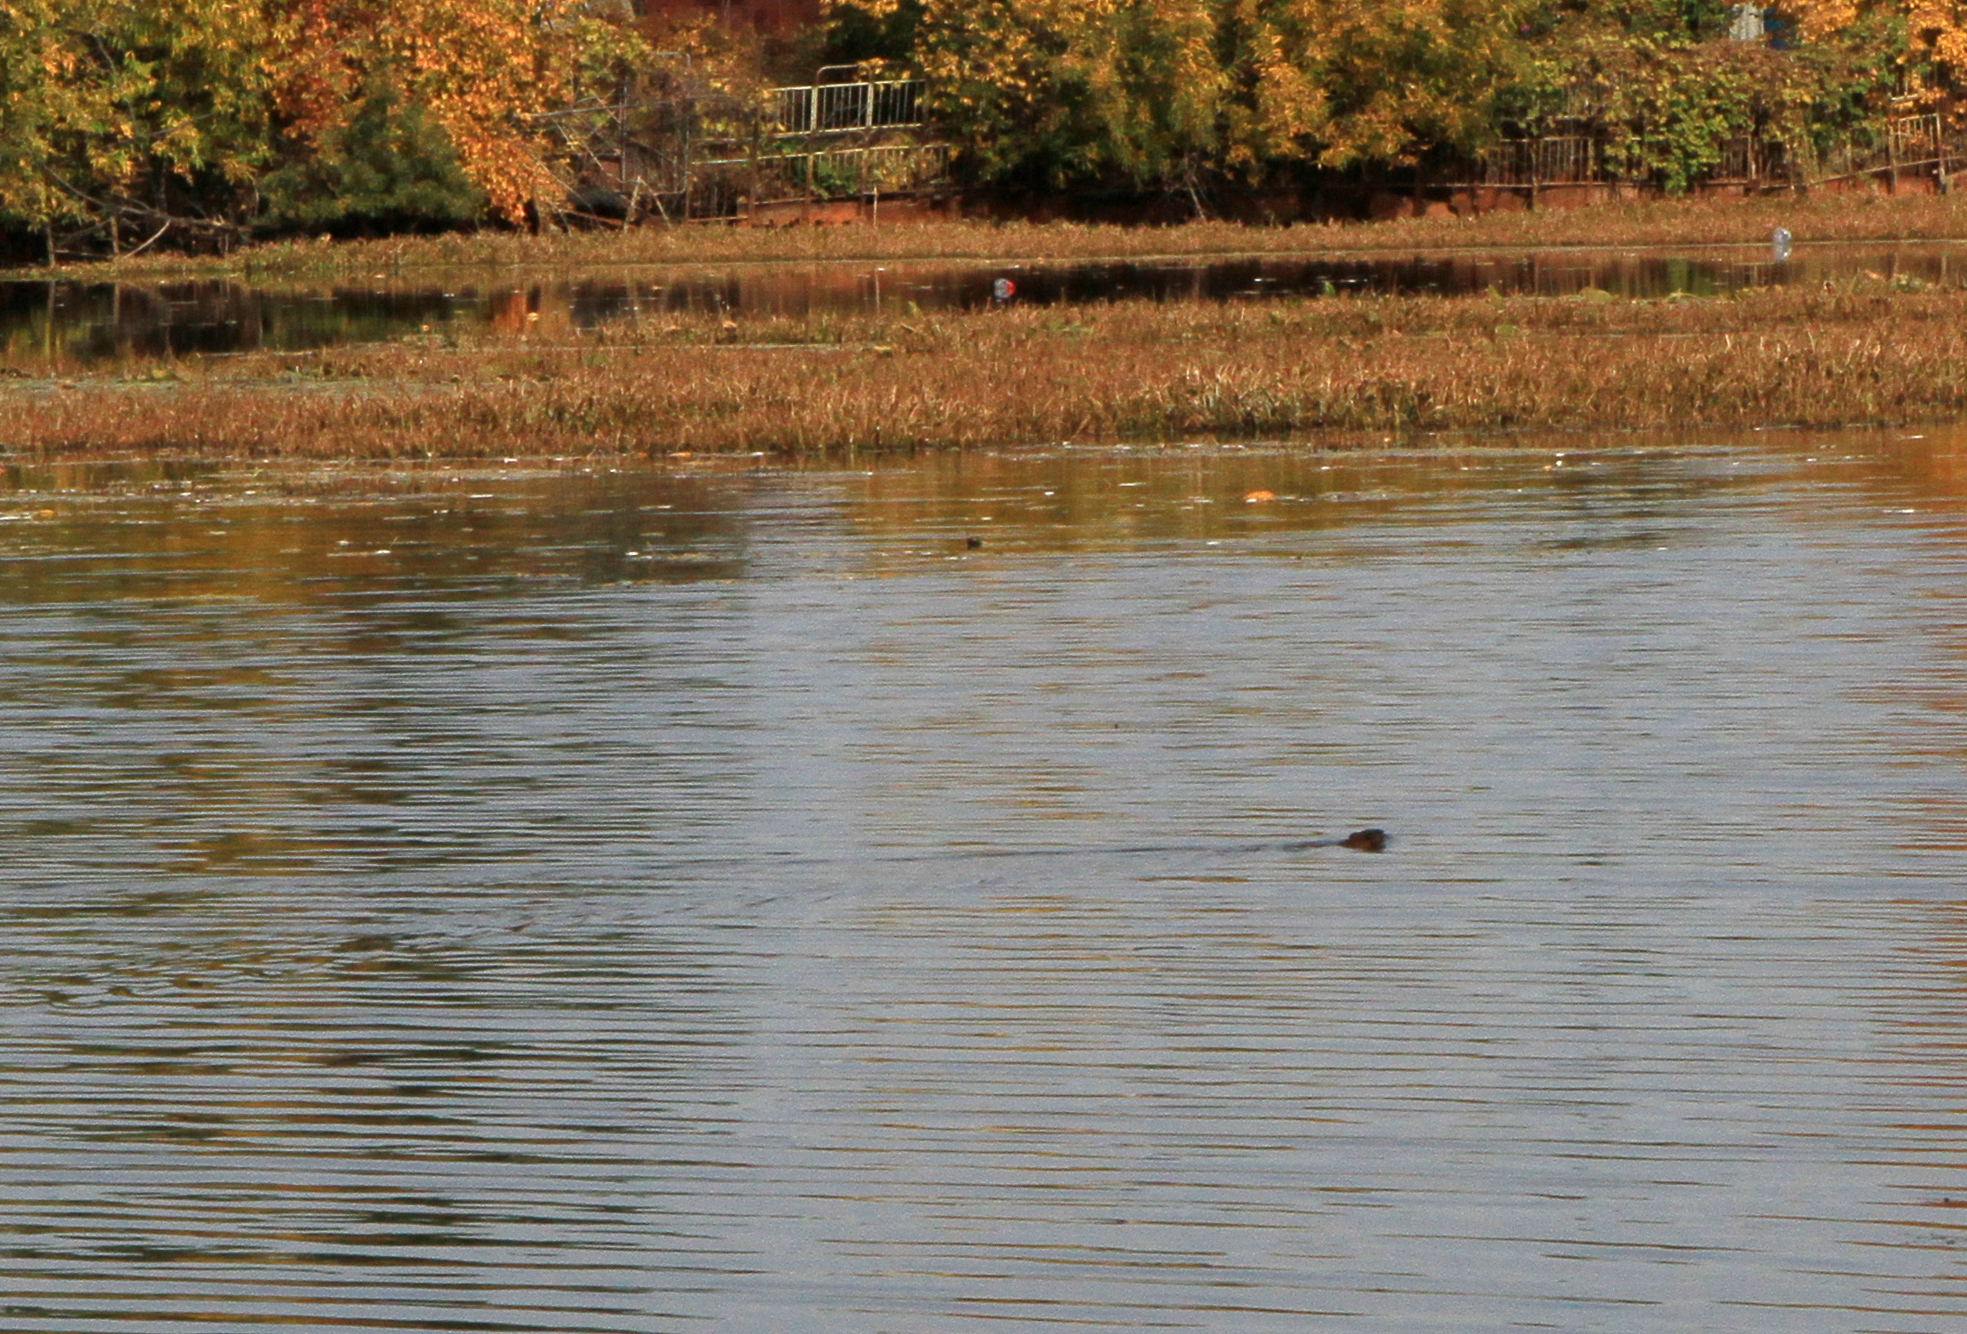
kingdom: Animalia
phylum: Chordata
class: Mammalia
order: Rodentia
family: Cricetidae
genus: Ondatra
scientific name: Ondatra zibethicus
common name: Muskrat
